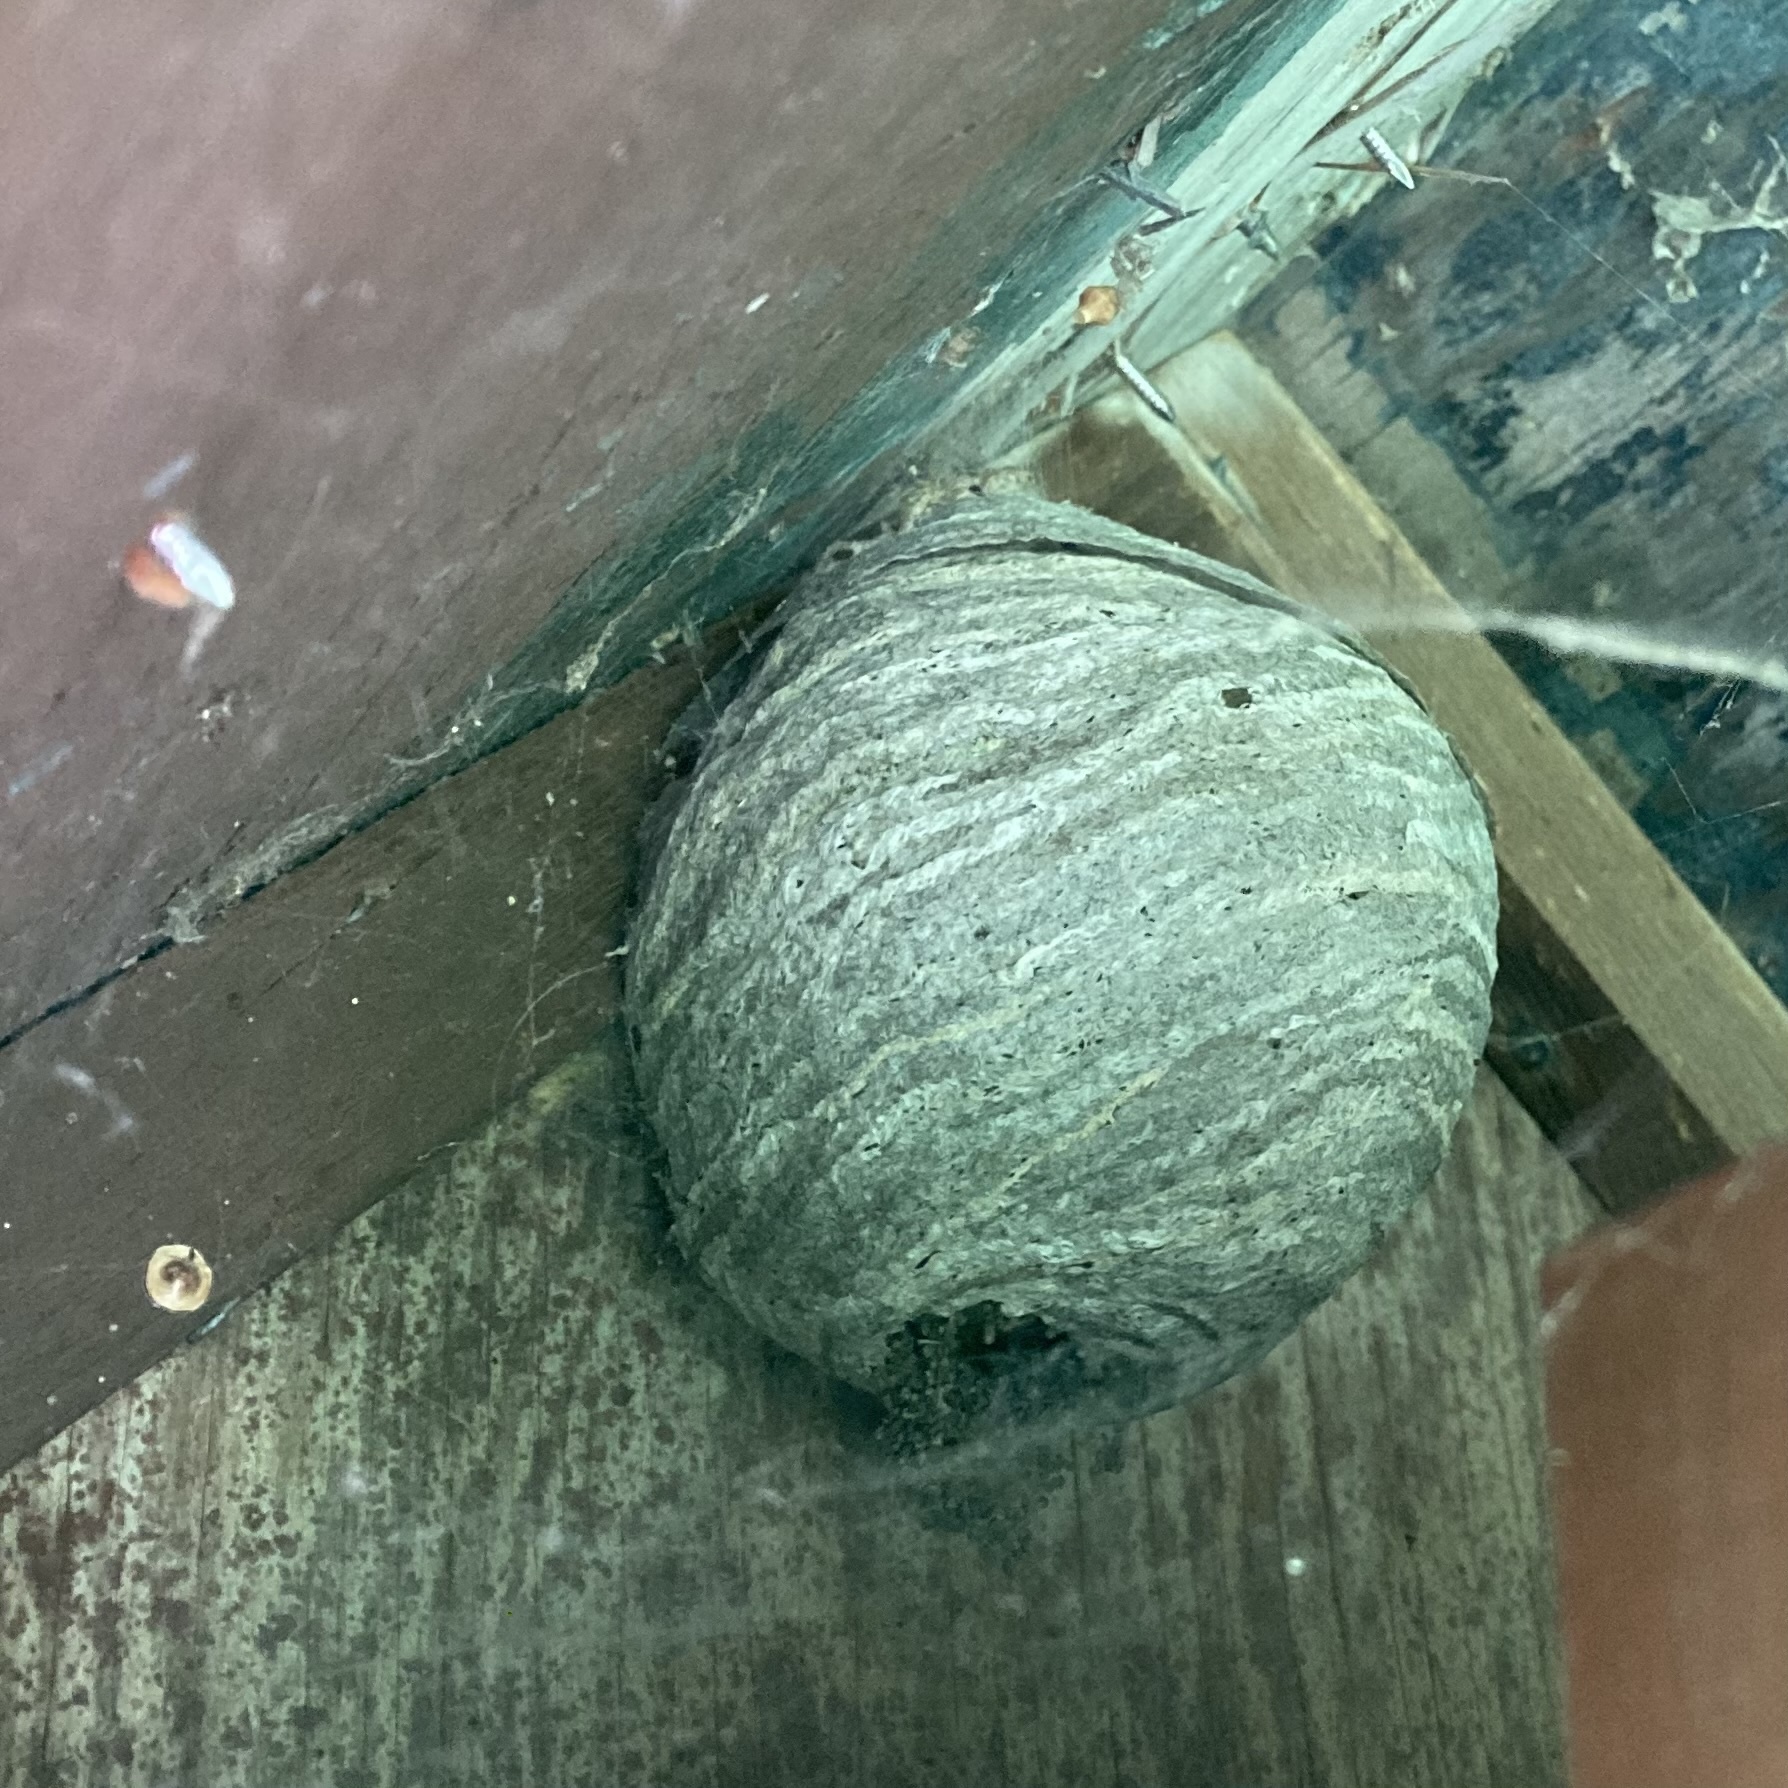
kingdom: Animalia
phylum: Arthropoda
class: Insecta
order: Hymenoptera
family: Vespidae
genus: Dolichovespula
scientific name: Dolichovespula
